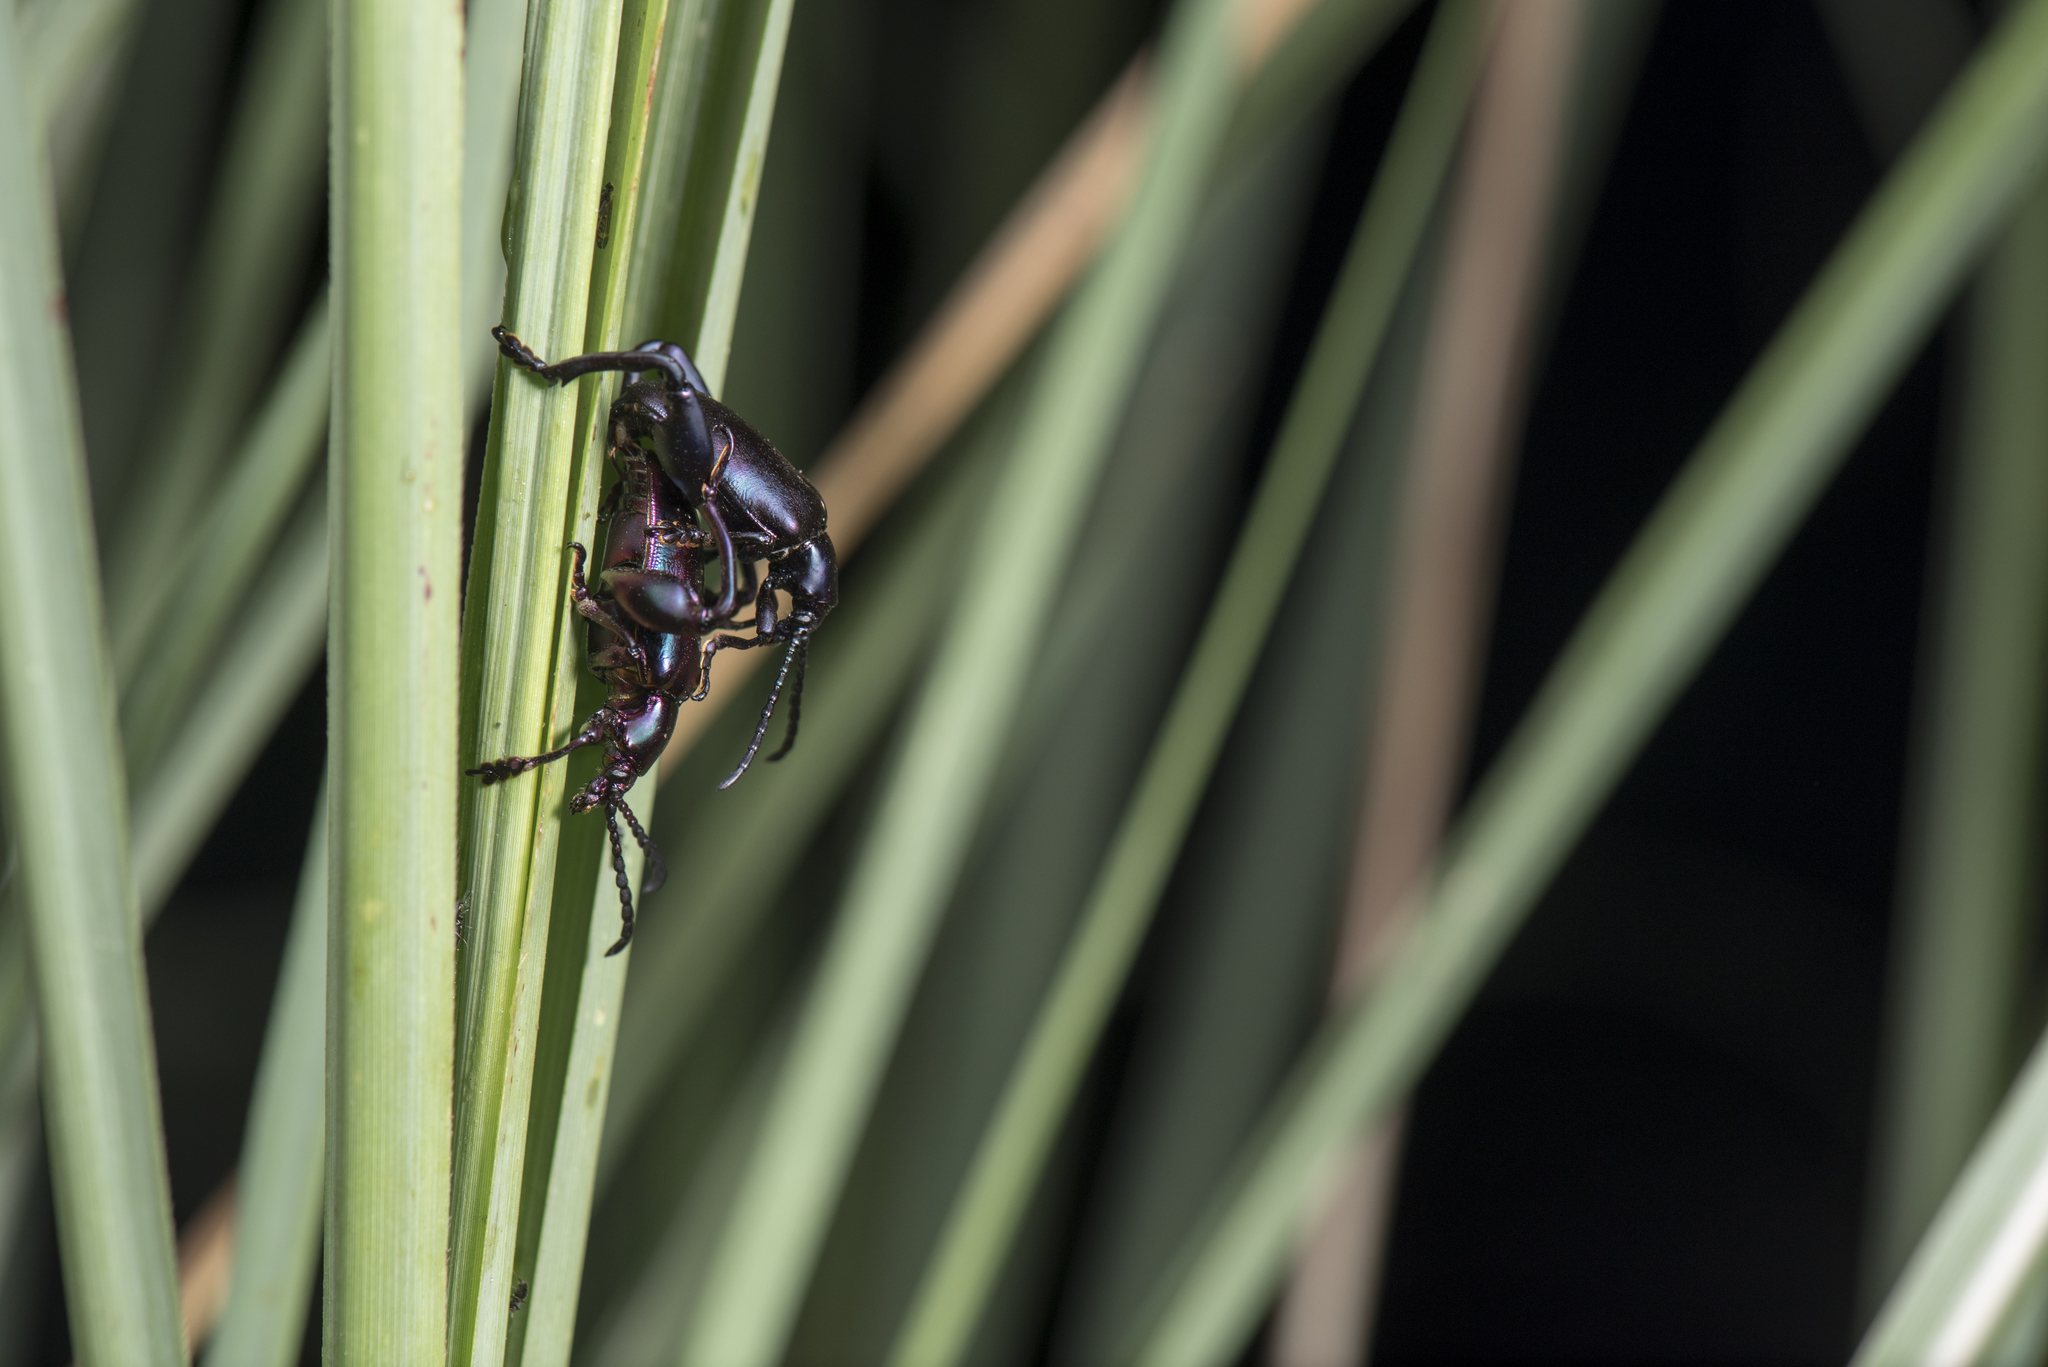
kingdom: Animalia
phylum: Arthropoda
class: Insecta
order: Coleoptera
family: Chrysomelidae
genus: Sagra
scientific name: Sagra femorata
